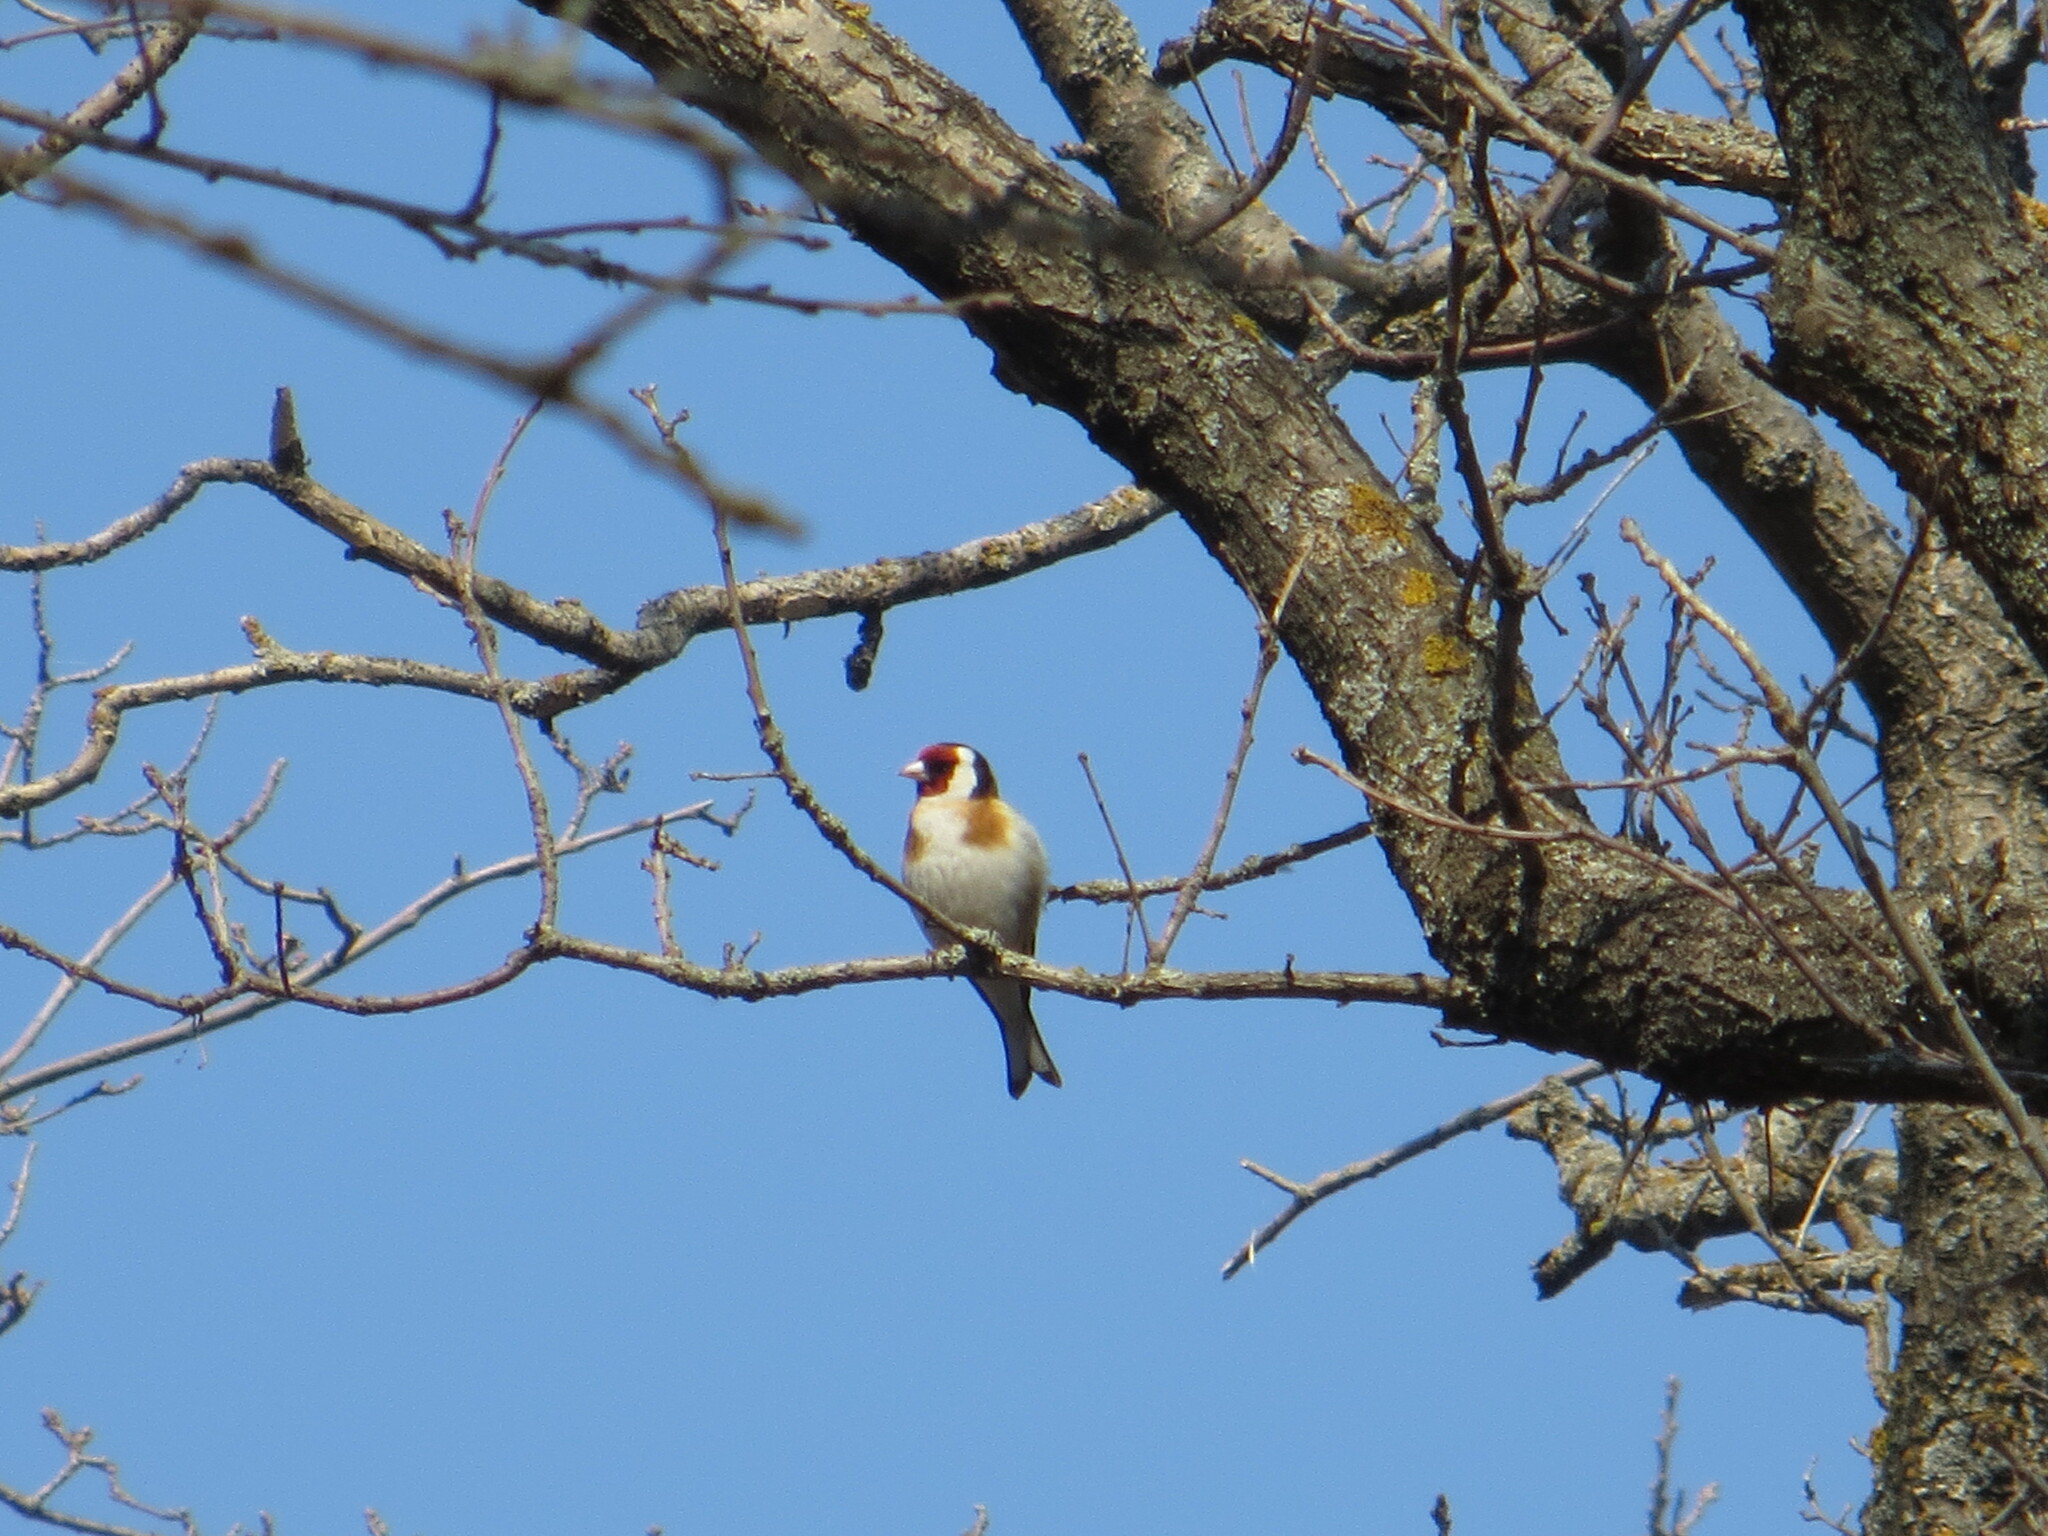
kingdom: Animalia
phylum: Chordata
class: Aves
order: Passeriformes
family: Fringillidae
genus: Carduelis
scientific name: Carduelis carduelis
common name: European goldfinch
